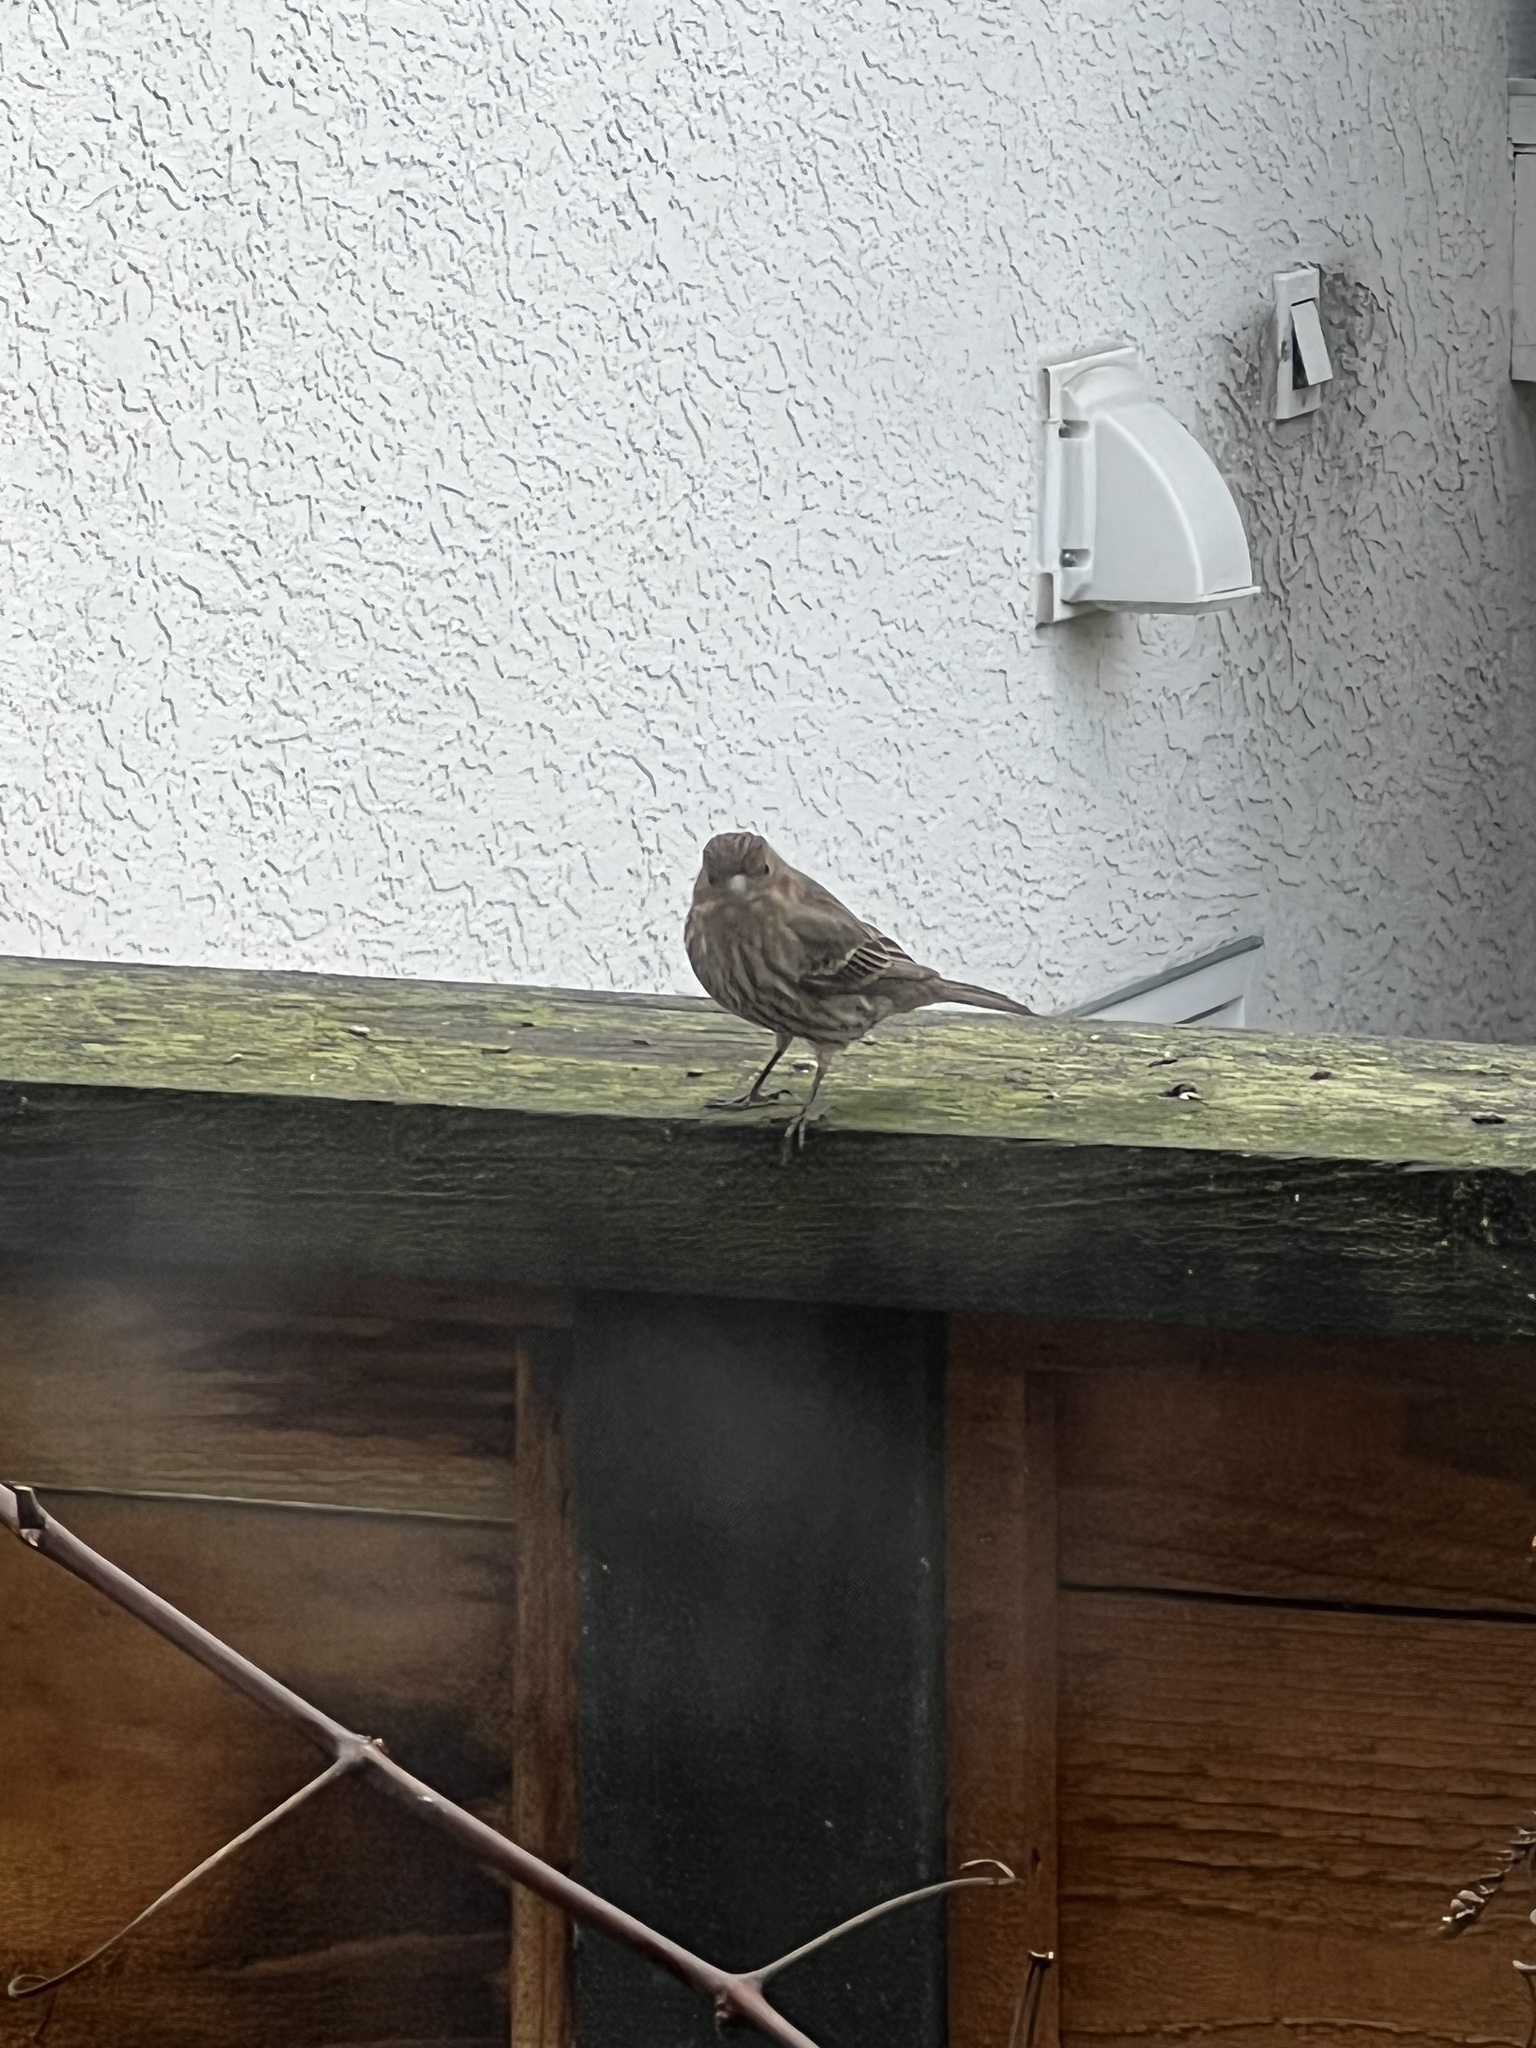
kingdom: Animalia
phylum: Chordata
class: Aves
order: Passeriformes
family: Fringillidae
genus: Haemorhous
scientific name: Haemorhous mexicanus
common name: House finch
